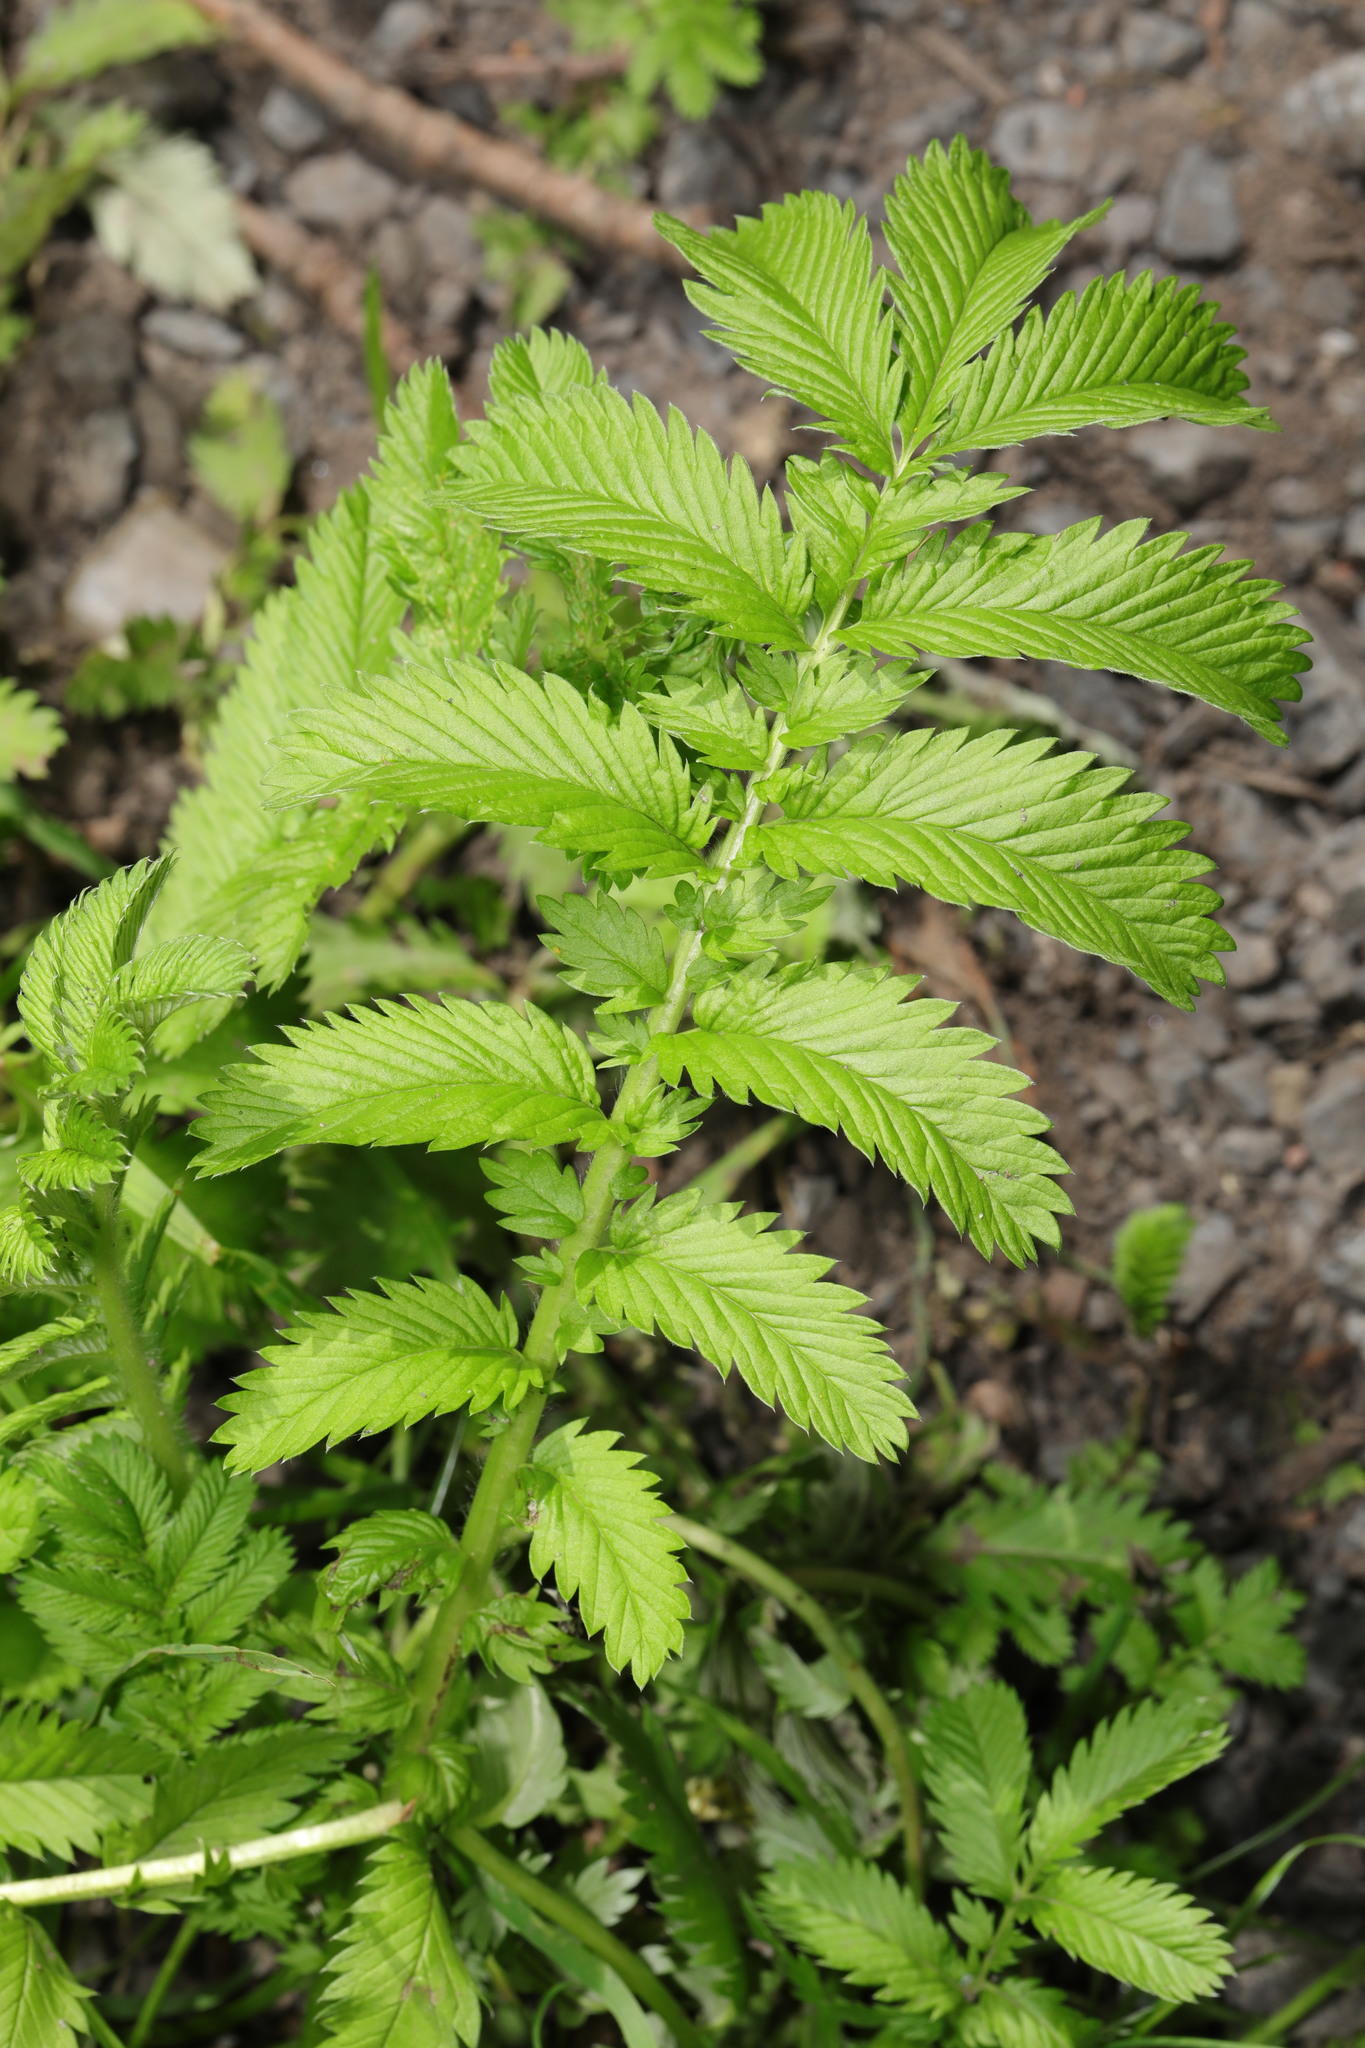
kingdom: Plantae
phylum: Tracheophyta
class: Magnoliopsida
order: Rosales
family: Rosaceae
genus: Argentina
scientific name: Argentina anserina
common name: Common silverweed
